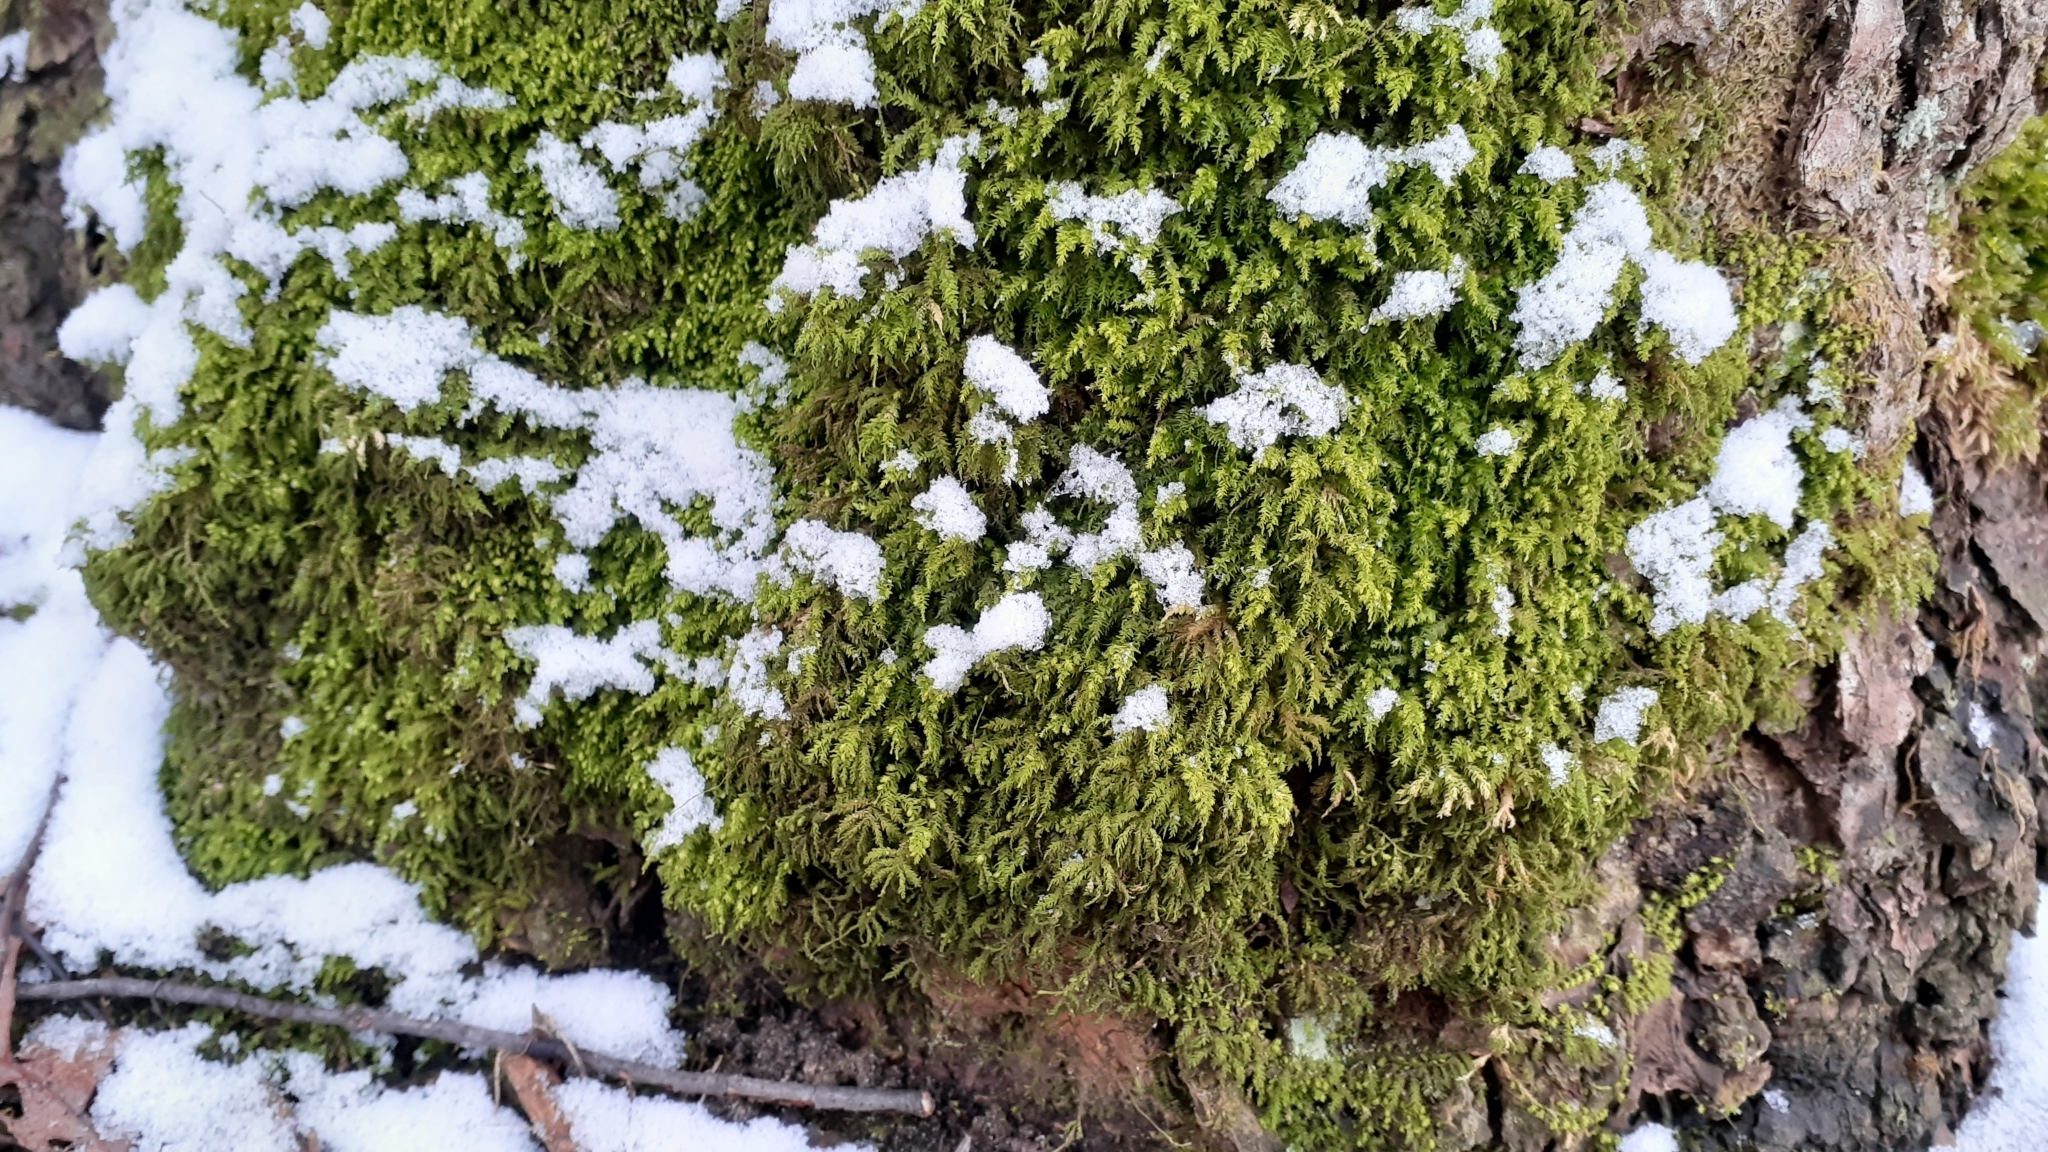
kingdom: Plantae
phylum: Bryophyta
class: Bryopsida
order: Hypnales
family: Neckeraceae
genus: Pseudanomodon
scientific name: Pseudanomodon attenuatus
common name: Tree-skirt moss
